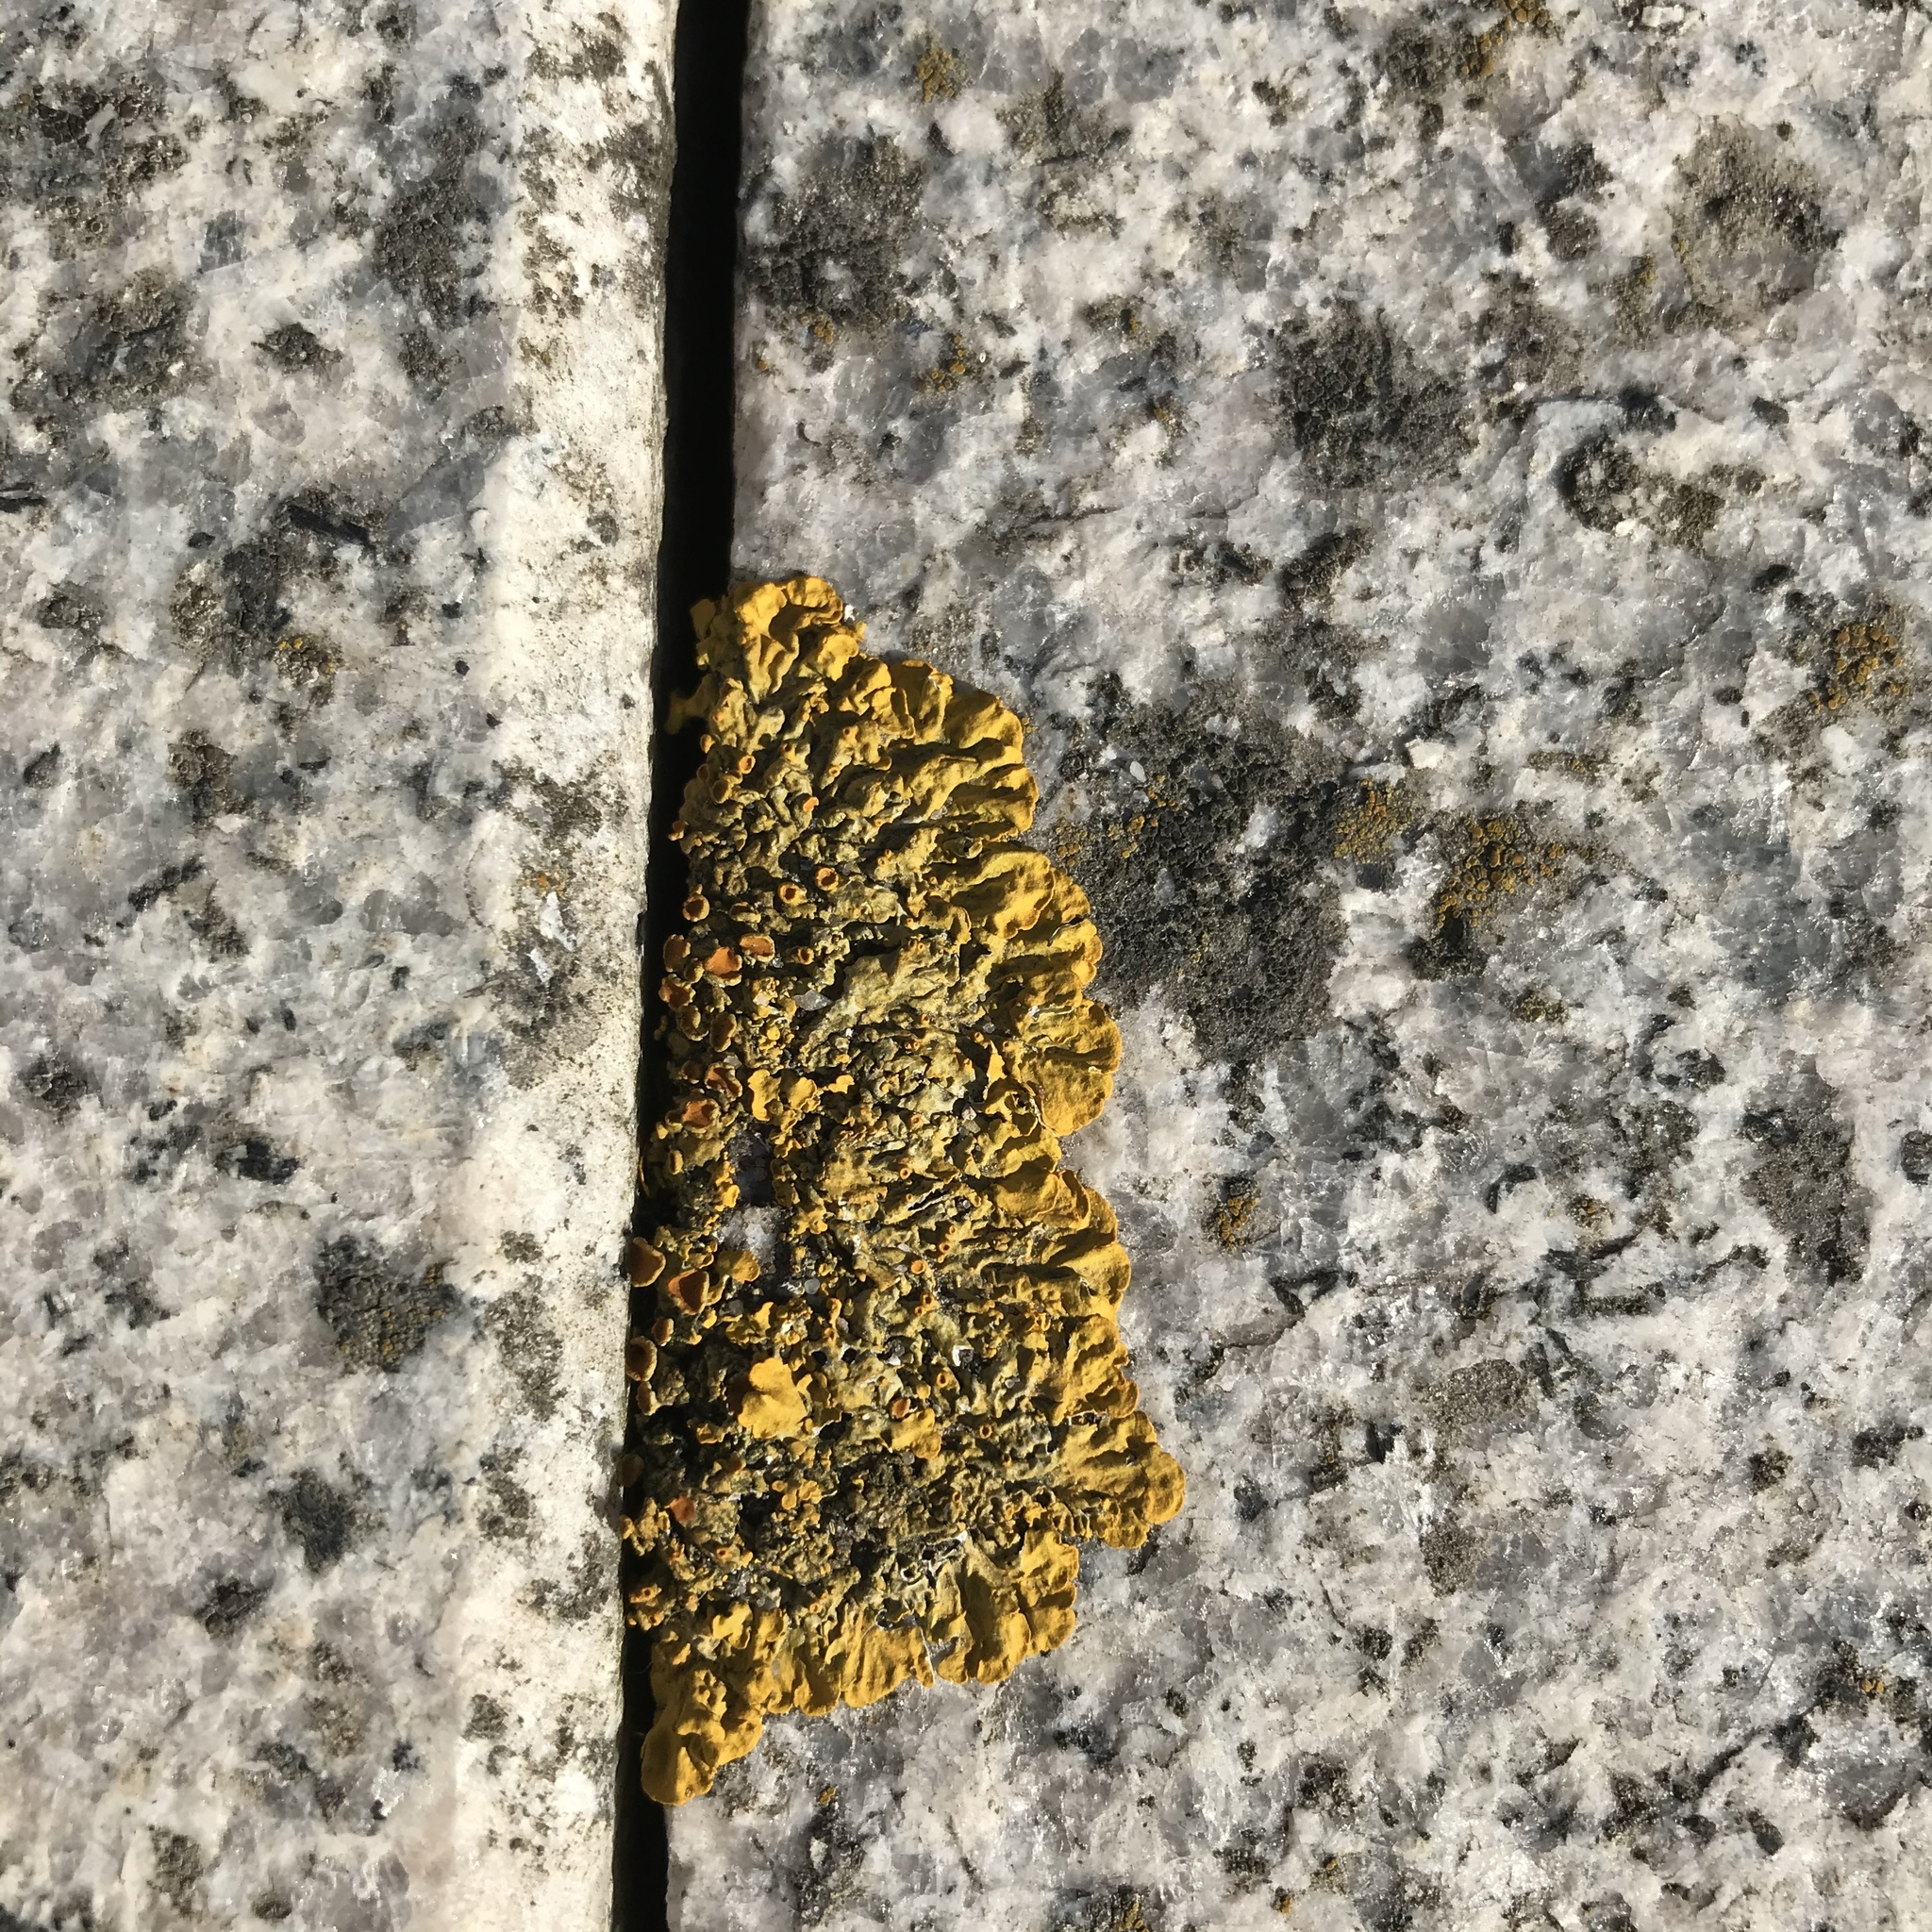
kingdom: Fungi
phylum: Ascomycota
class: Lecanoromycetes
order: Teloschistales
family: Teloschistaceae
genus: Xanthoria
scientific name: Xanthoria parietina
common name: Common orange lichen
